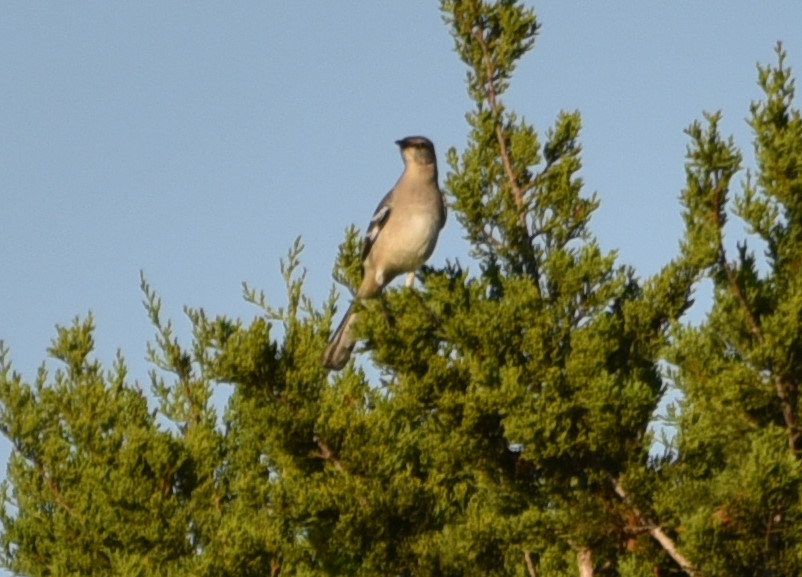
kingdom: Animalia
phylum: Chordata
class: Aves
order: Passeriformes
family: Mimidae
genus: Mimus
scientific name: Mimus polyglottos
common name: Northern mockingbird
